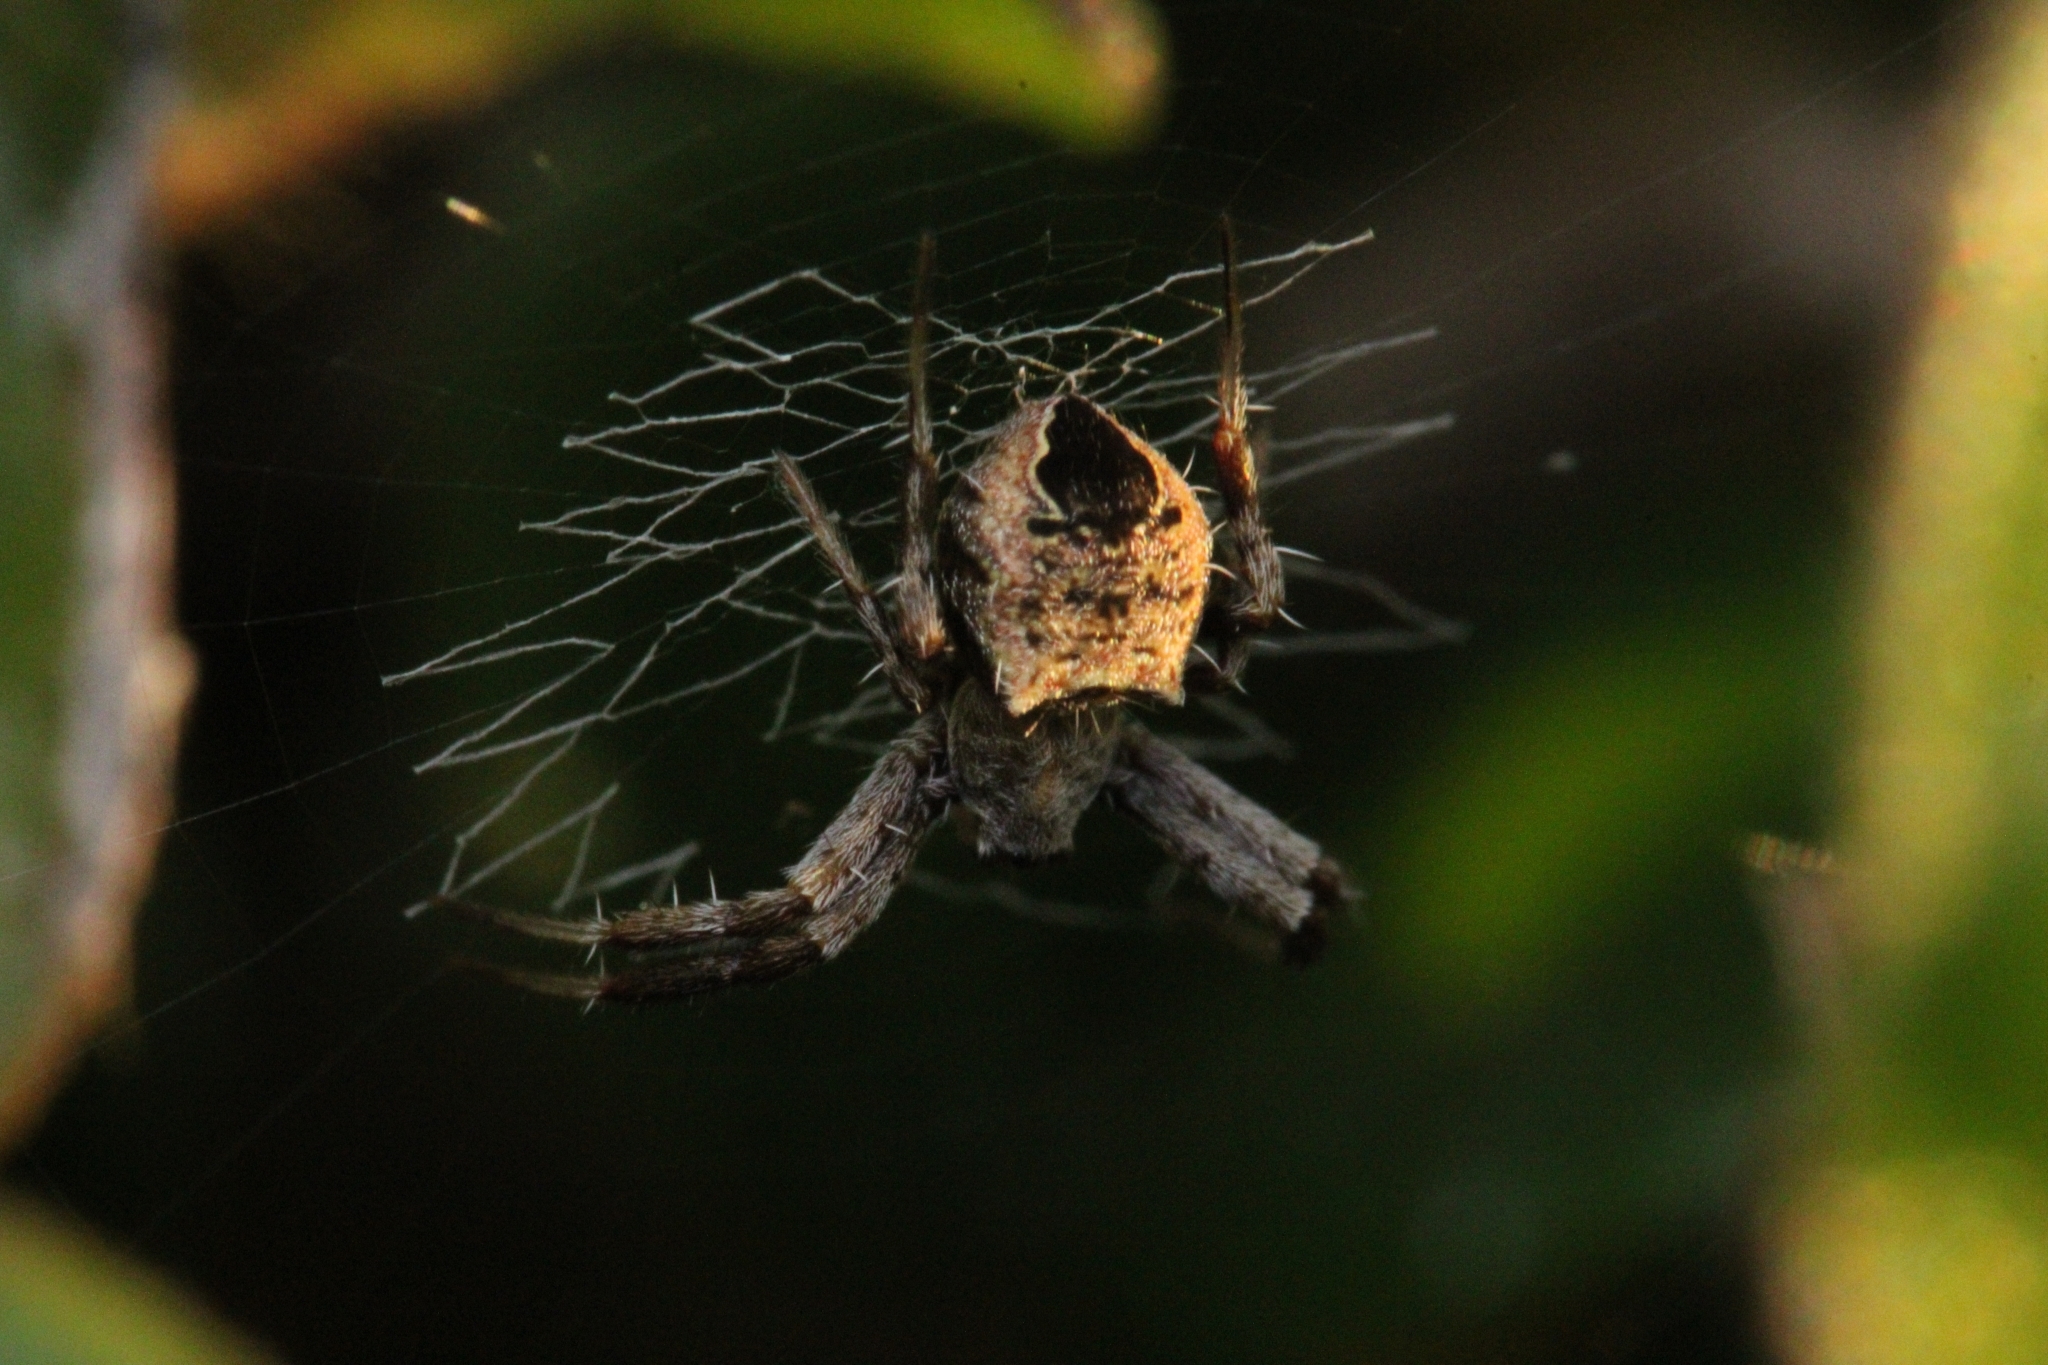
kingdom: Animalia
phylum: Arthropoda
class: Arachnida
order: Araneae
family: Araneidae
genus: Gea
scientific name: Gea infuscata
